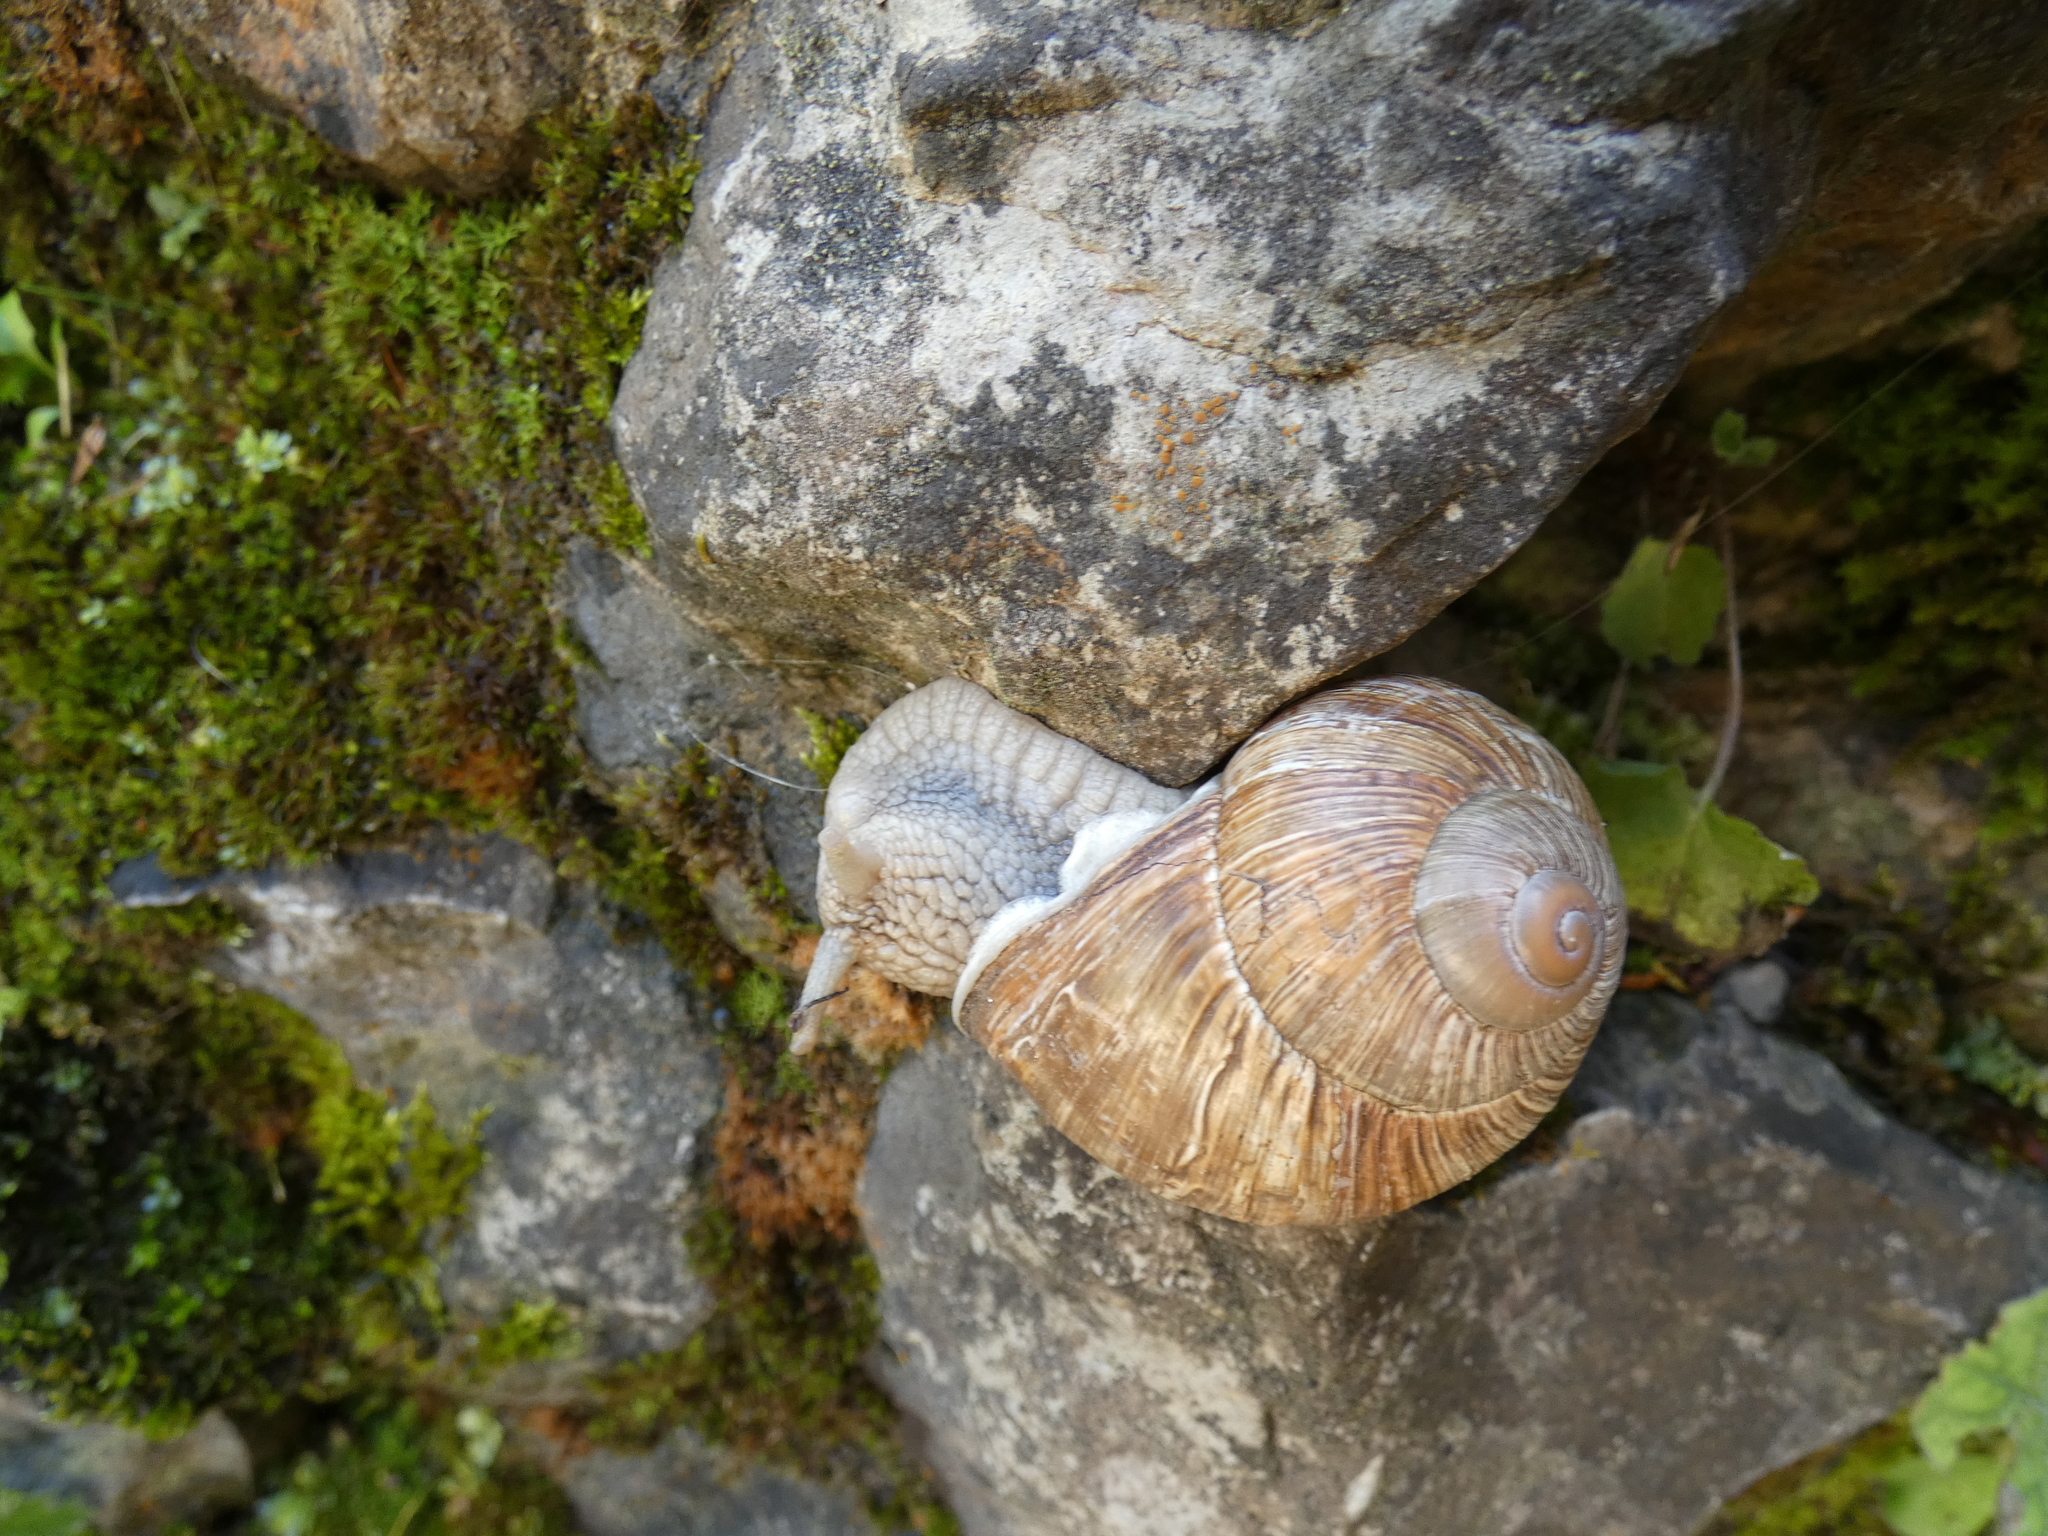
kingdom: Animalia
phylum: Mollusca
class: Gastropoda
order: Stylommatophora
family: Helicidae
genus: Helix
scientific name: Helix pomatia
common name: Roman snail
